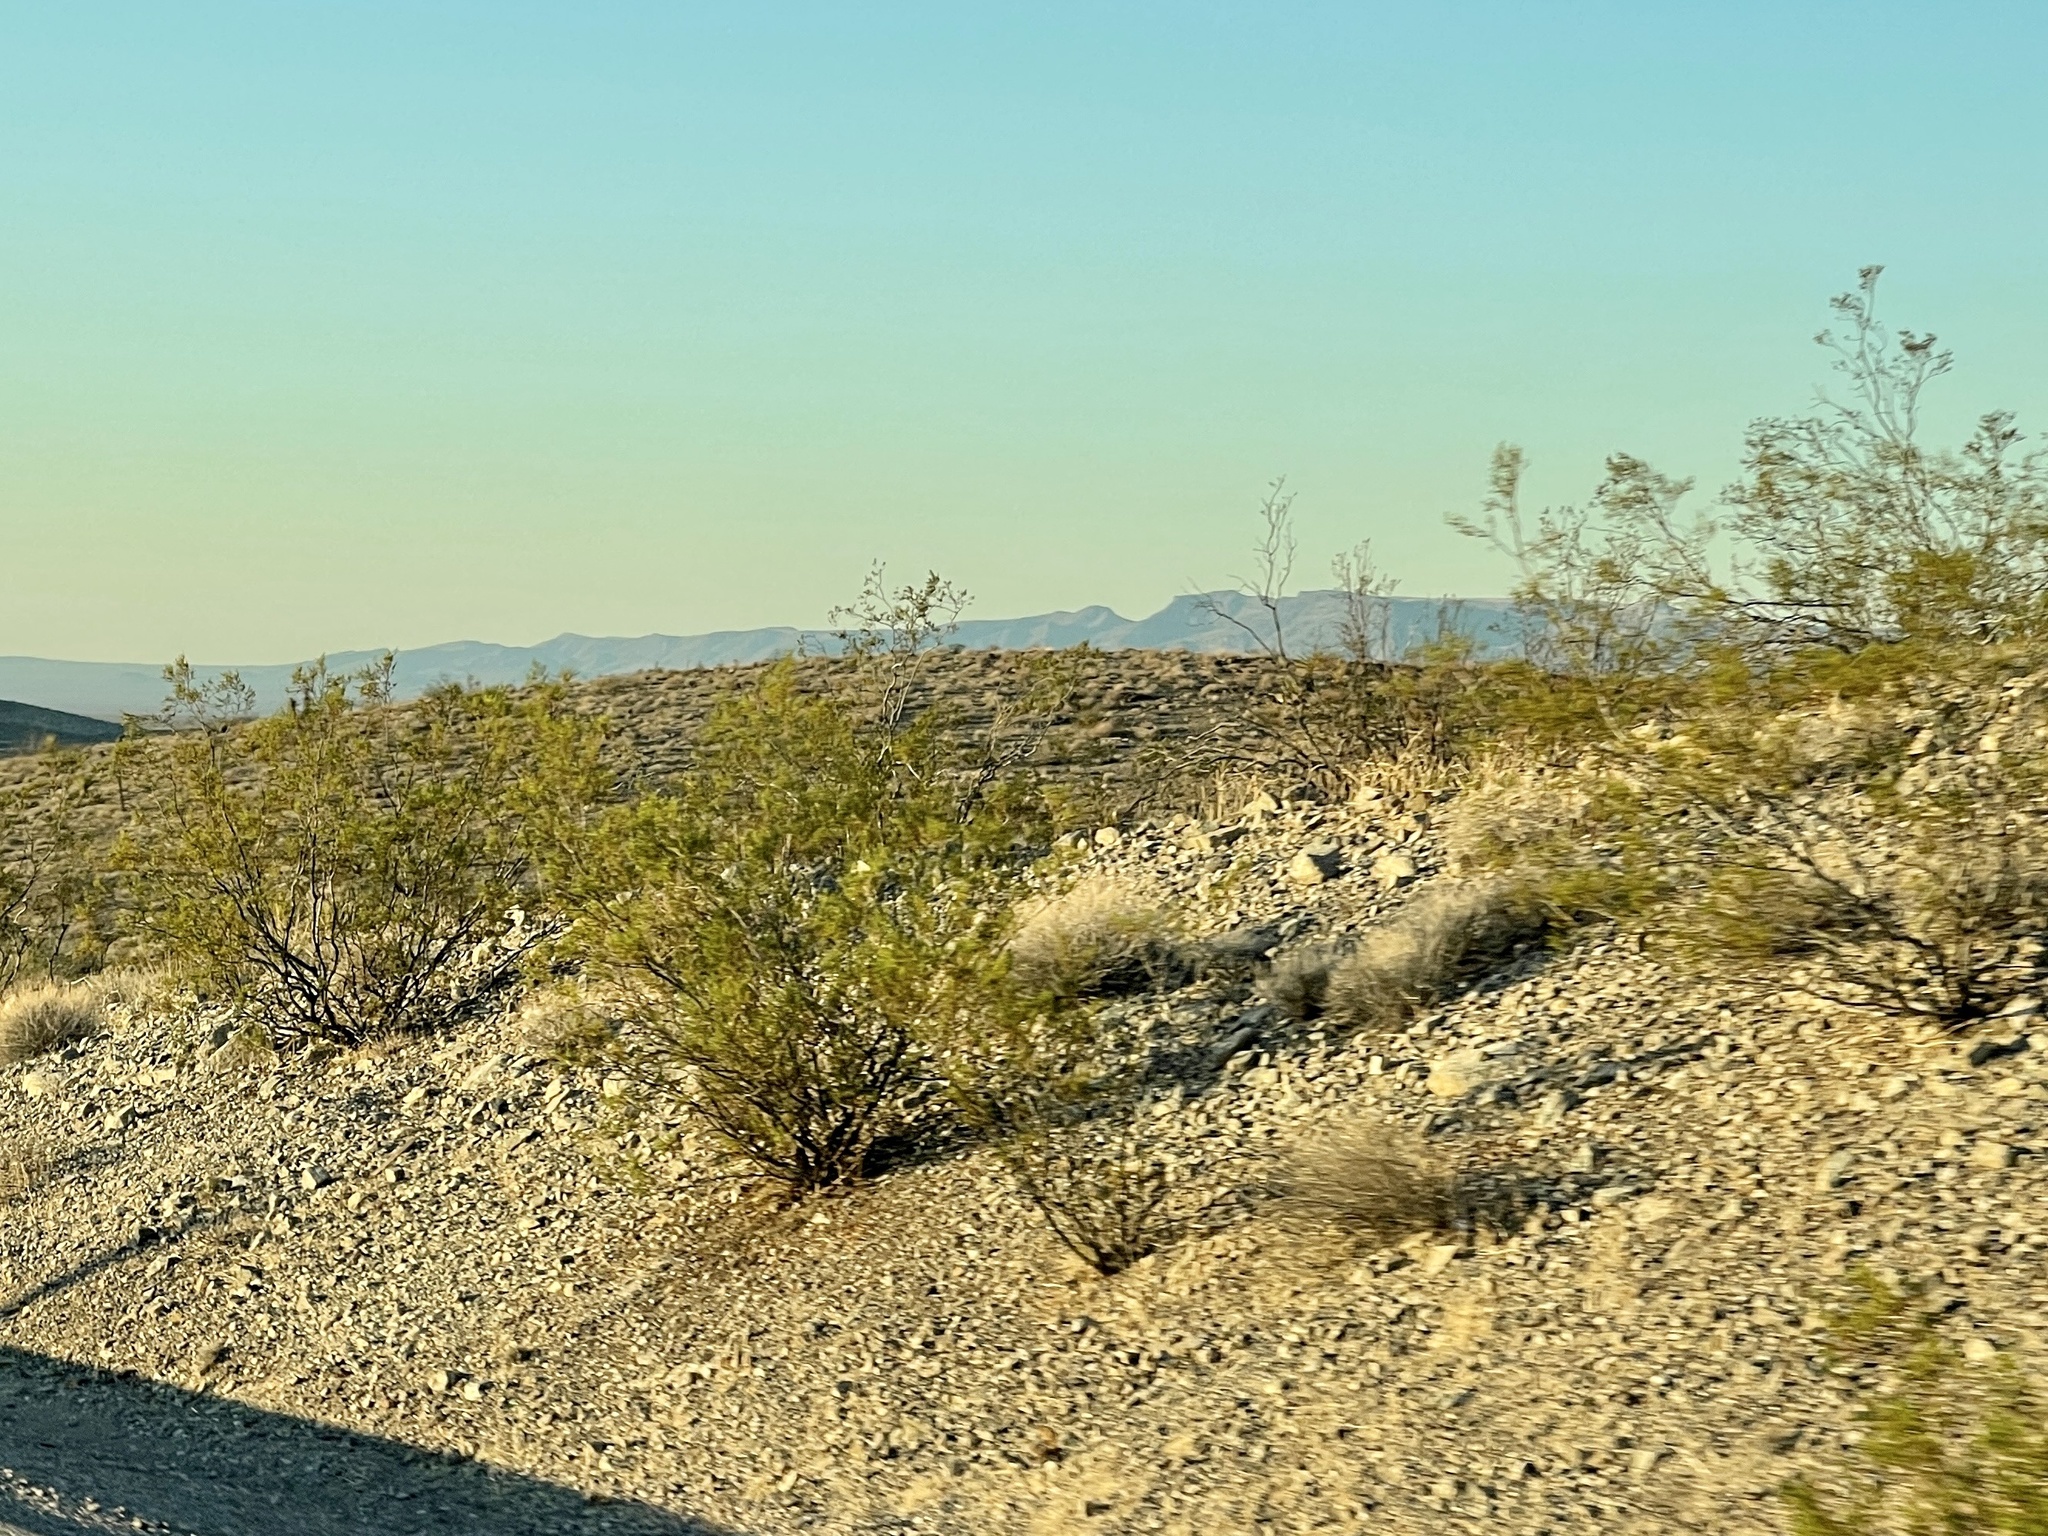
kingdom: Plantae
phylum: Tracheophyta
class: Magnoliopsida
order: Zygophyllales
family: Zygophyllaceae
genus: Larrea
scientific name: Larrea tridentata
